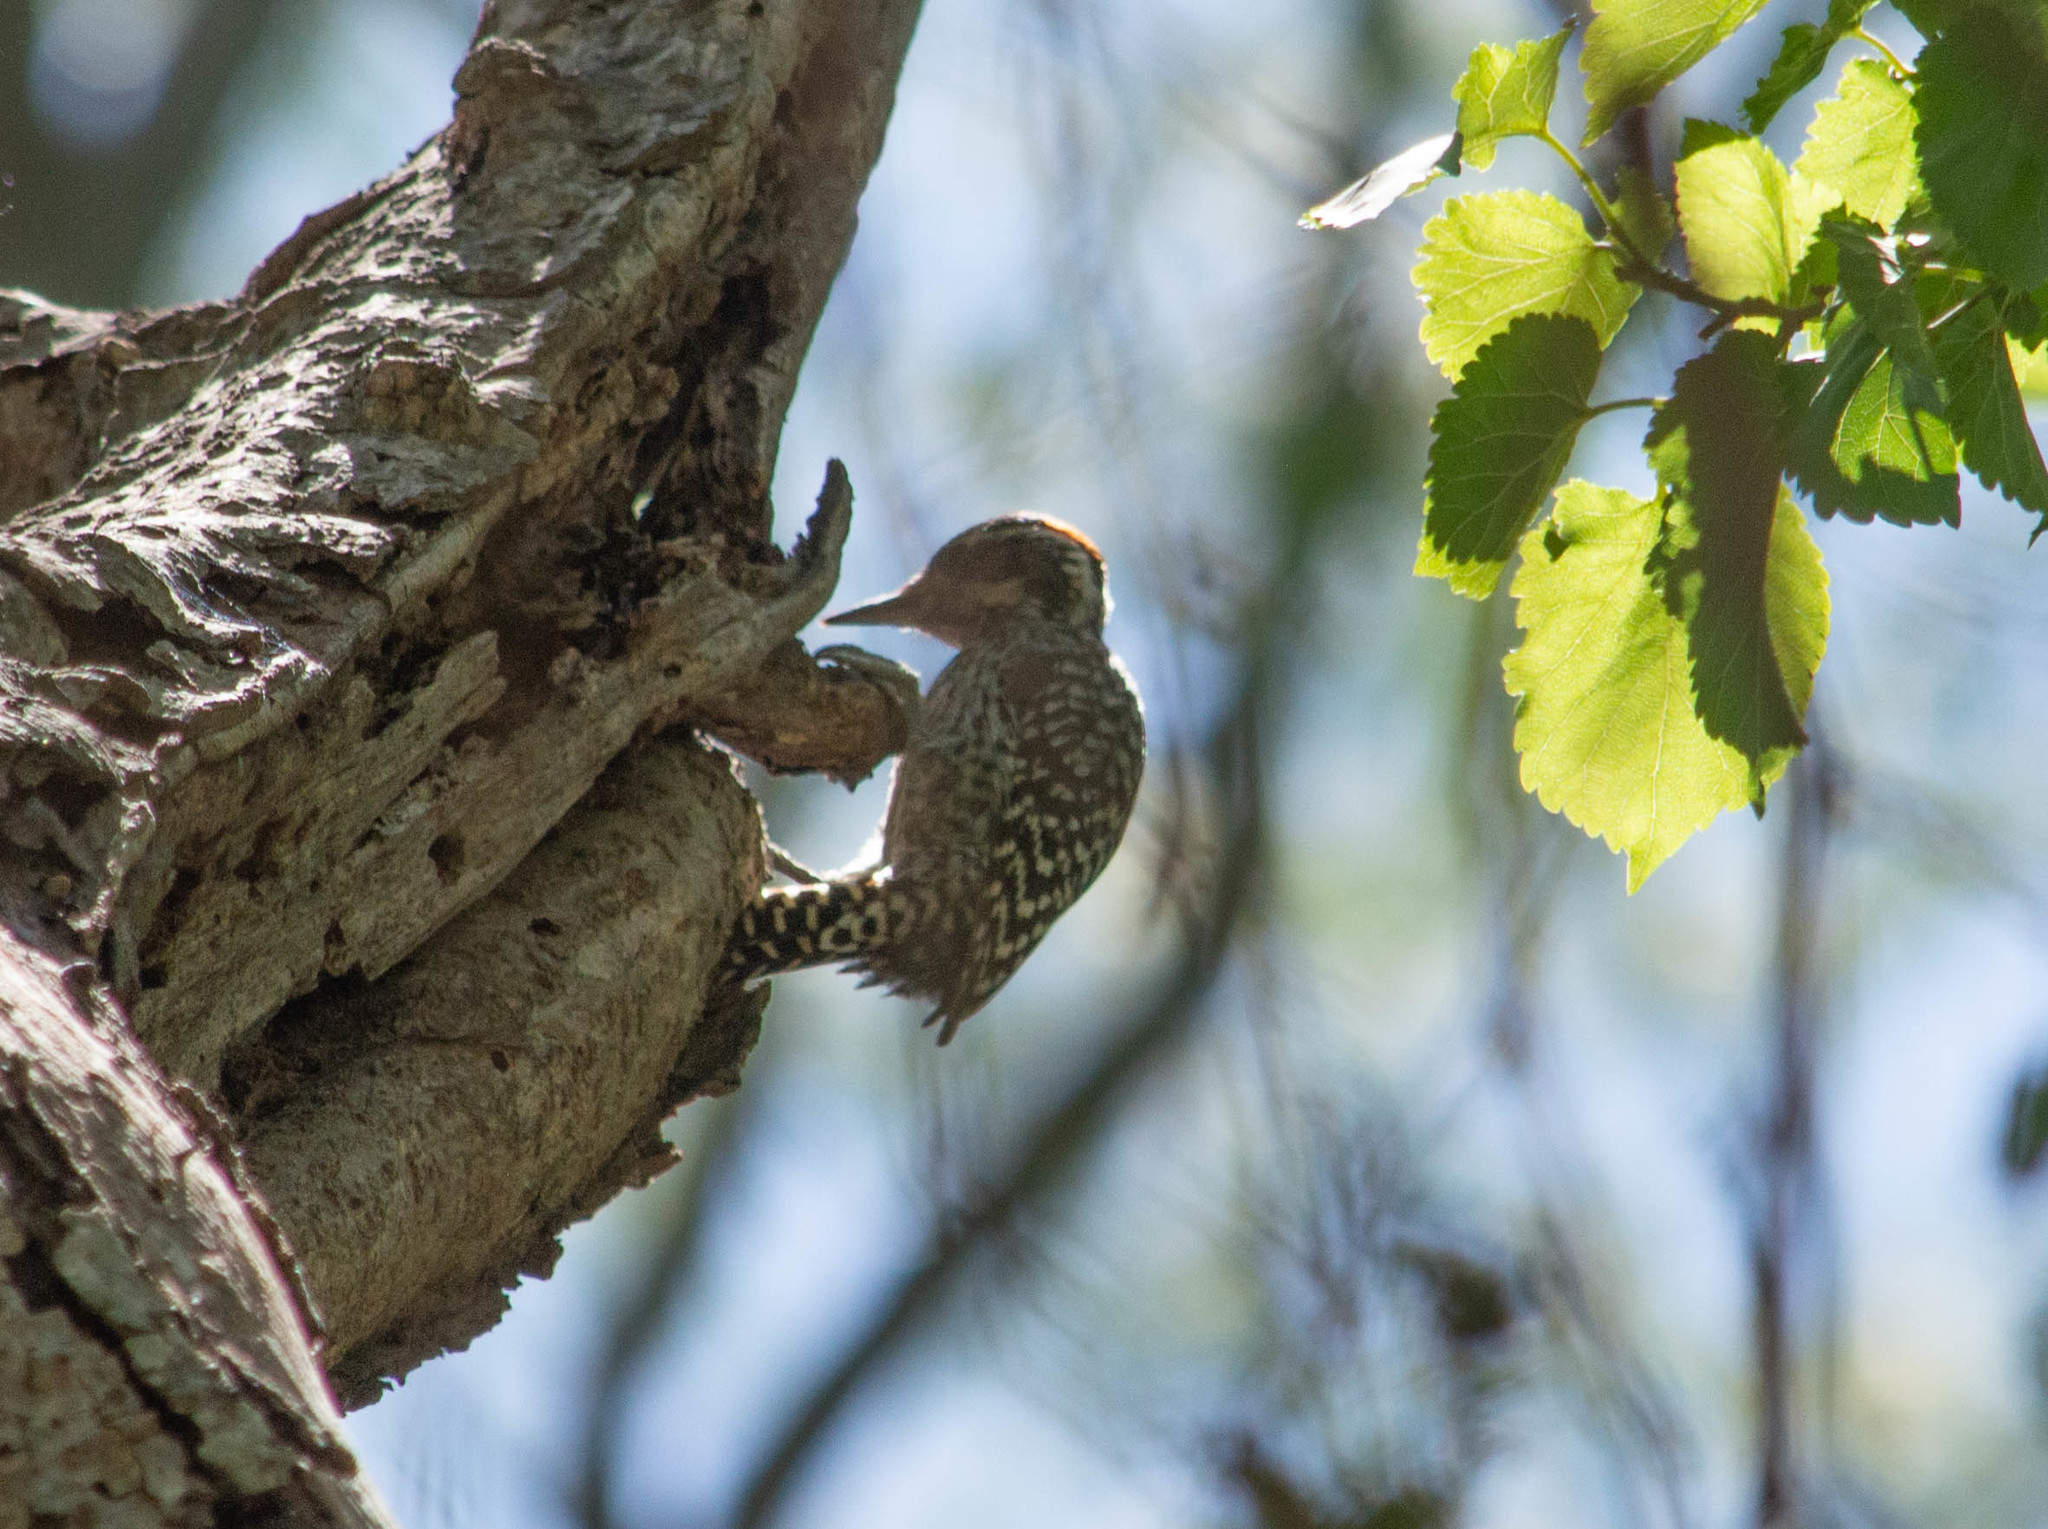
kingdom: Animalia
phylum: Chordata
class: Aves
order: Piciformes
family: Picidae
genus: Veniliornis
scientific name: Veniliornis mixtus
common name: Checkered woodpecker
